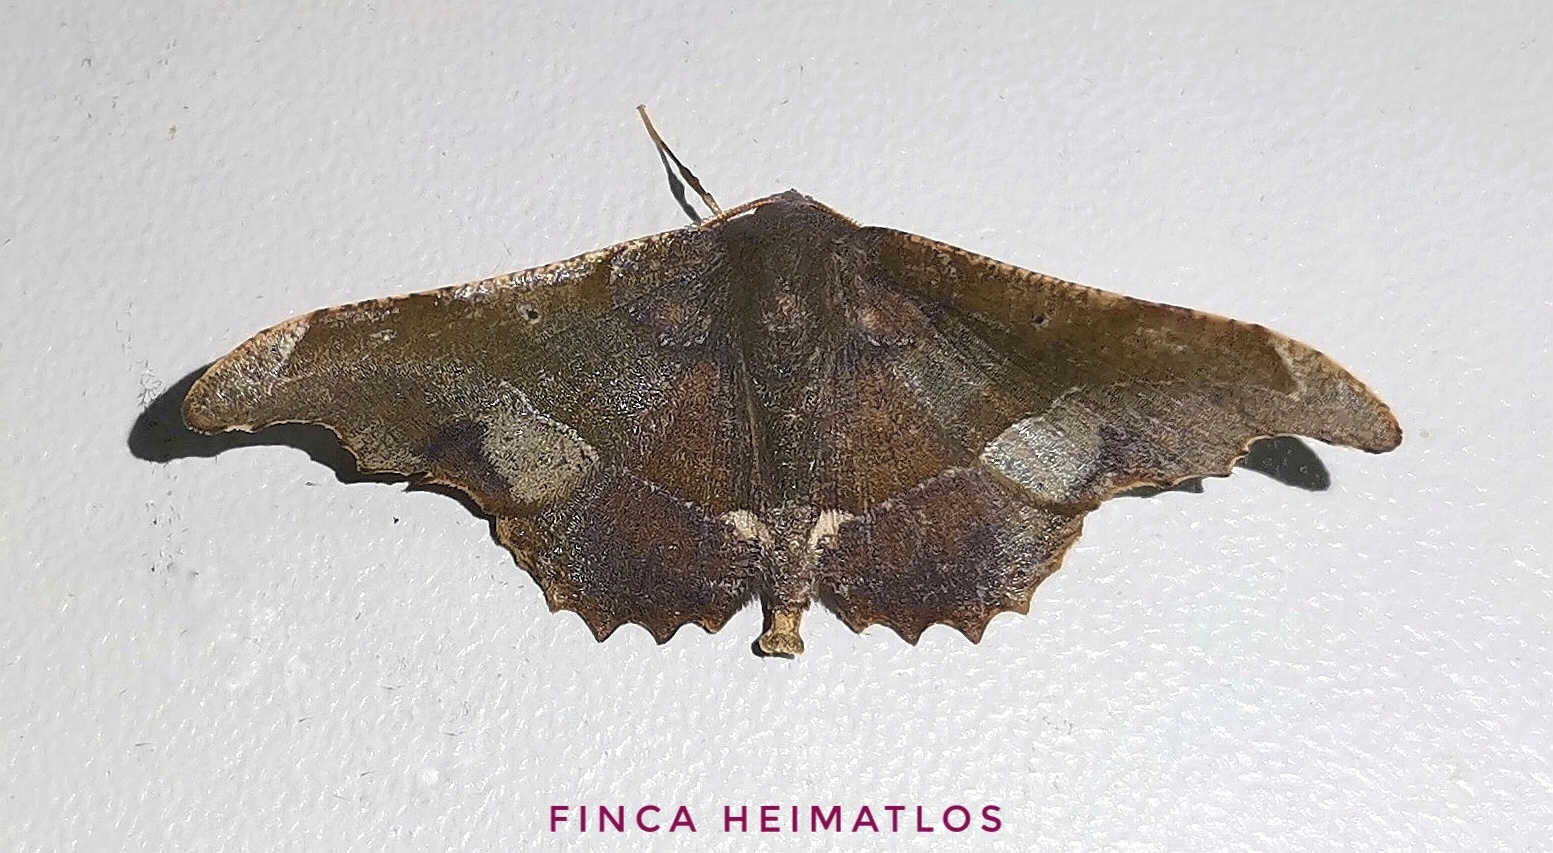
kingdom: Animalia
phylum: Arthropoda
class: Insecta
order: Lepidoptera
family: Geometridae
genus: Patalene
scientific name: Patalene aenetusaria
